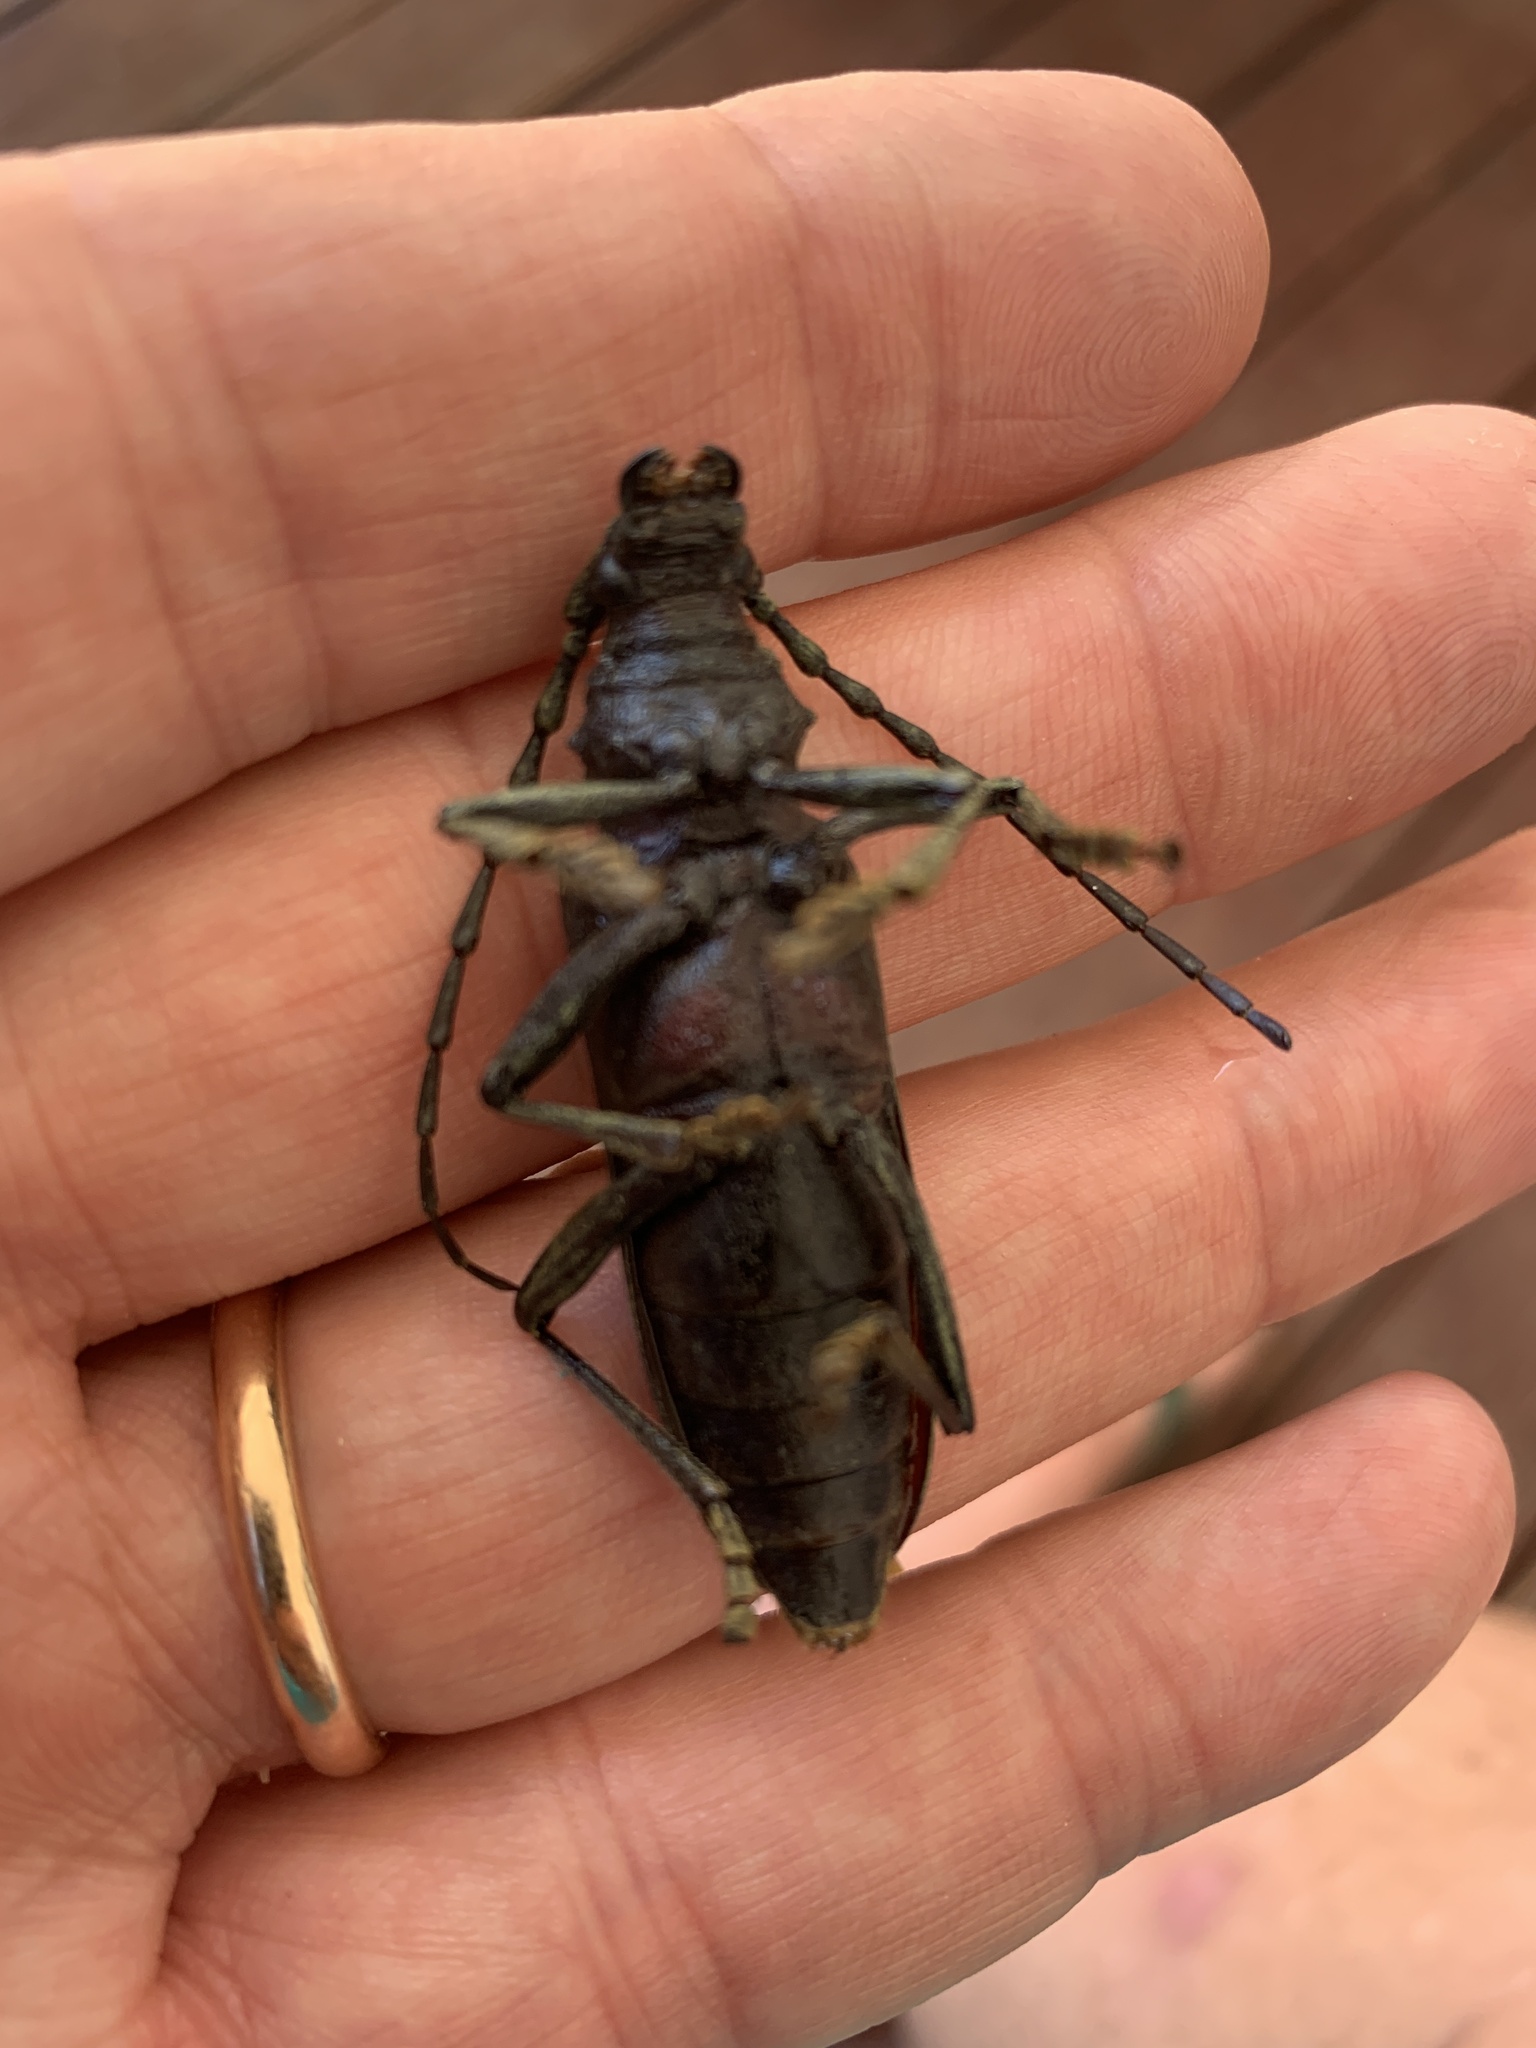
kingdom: Animalia
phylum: Arthropoda
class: Insecta
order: Coleoptera
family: Cerambycidae
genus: Cerambyx
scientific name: Cerambyx welensii
